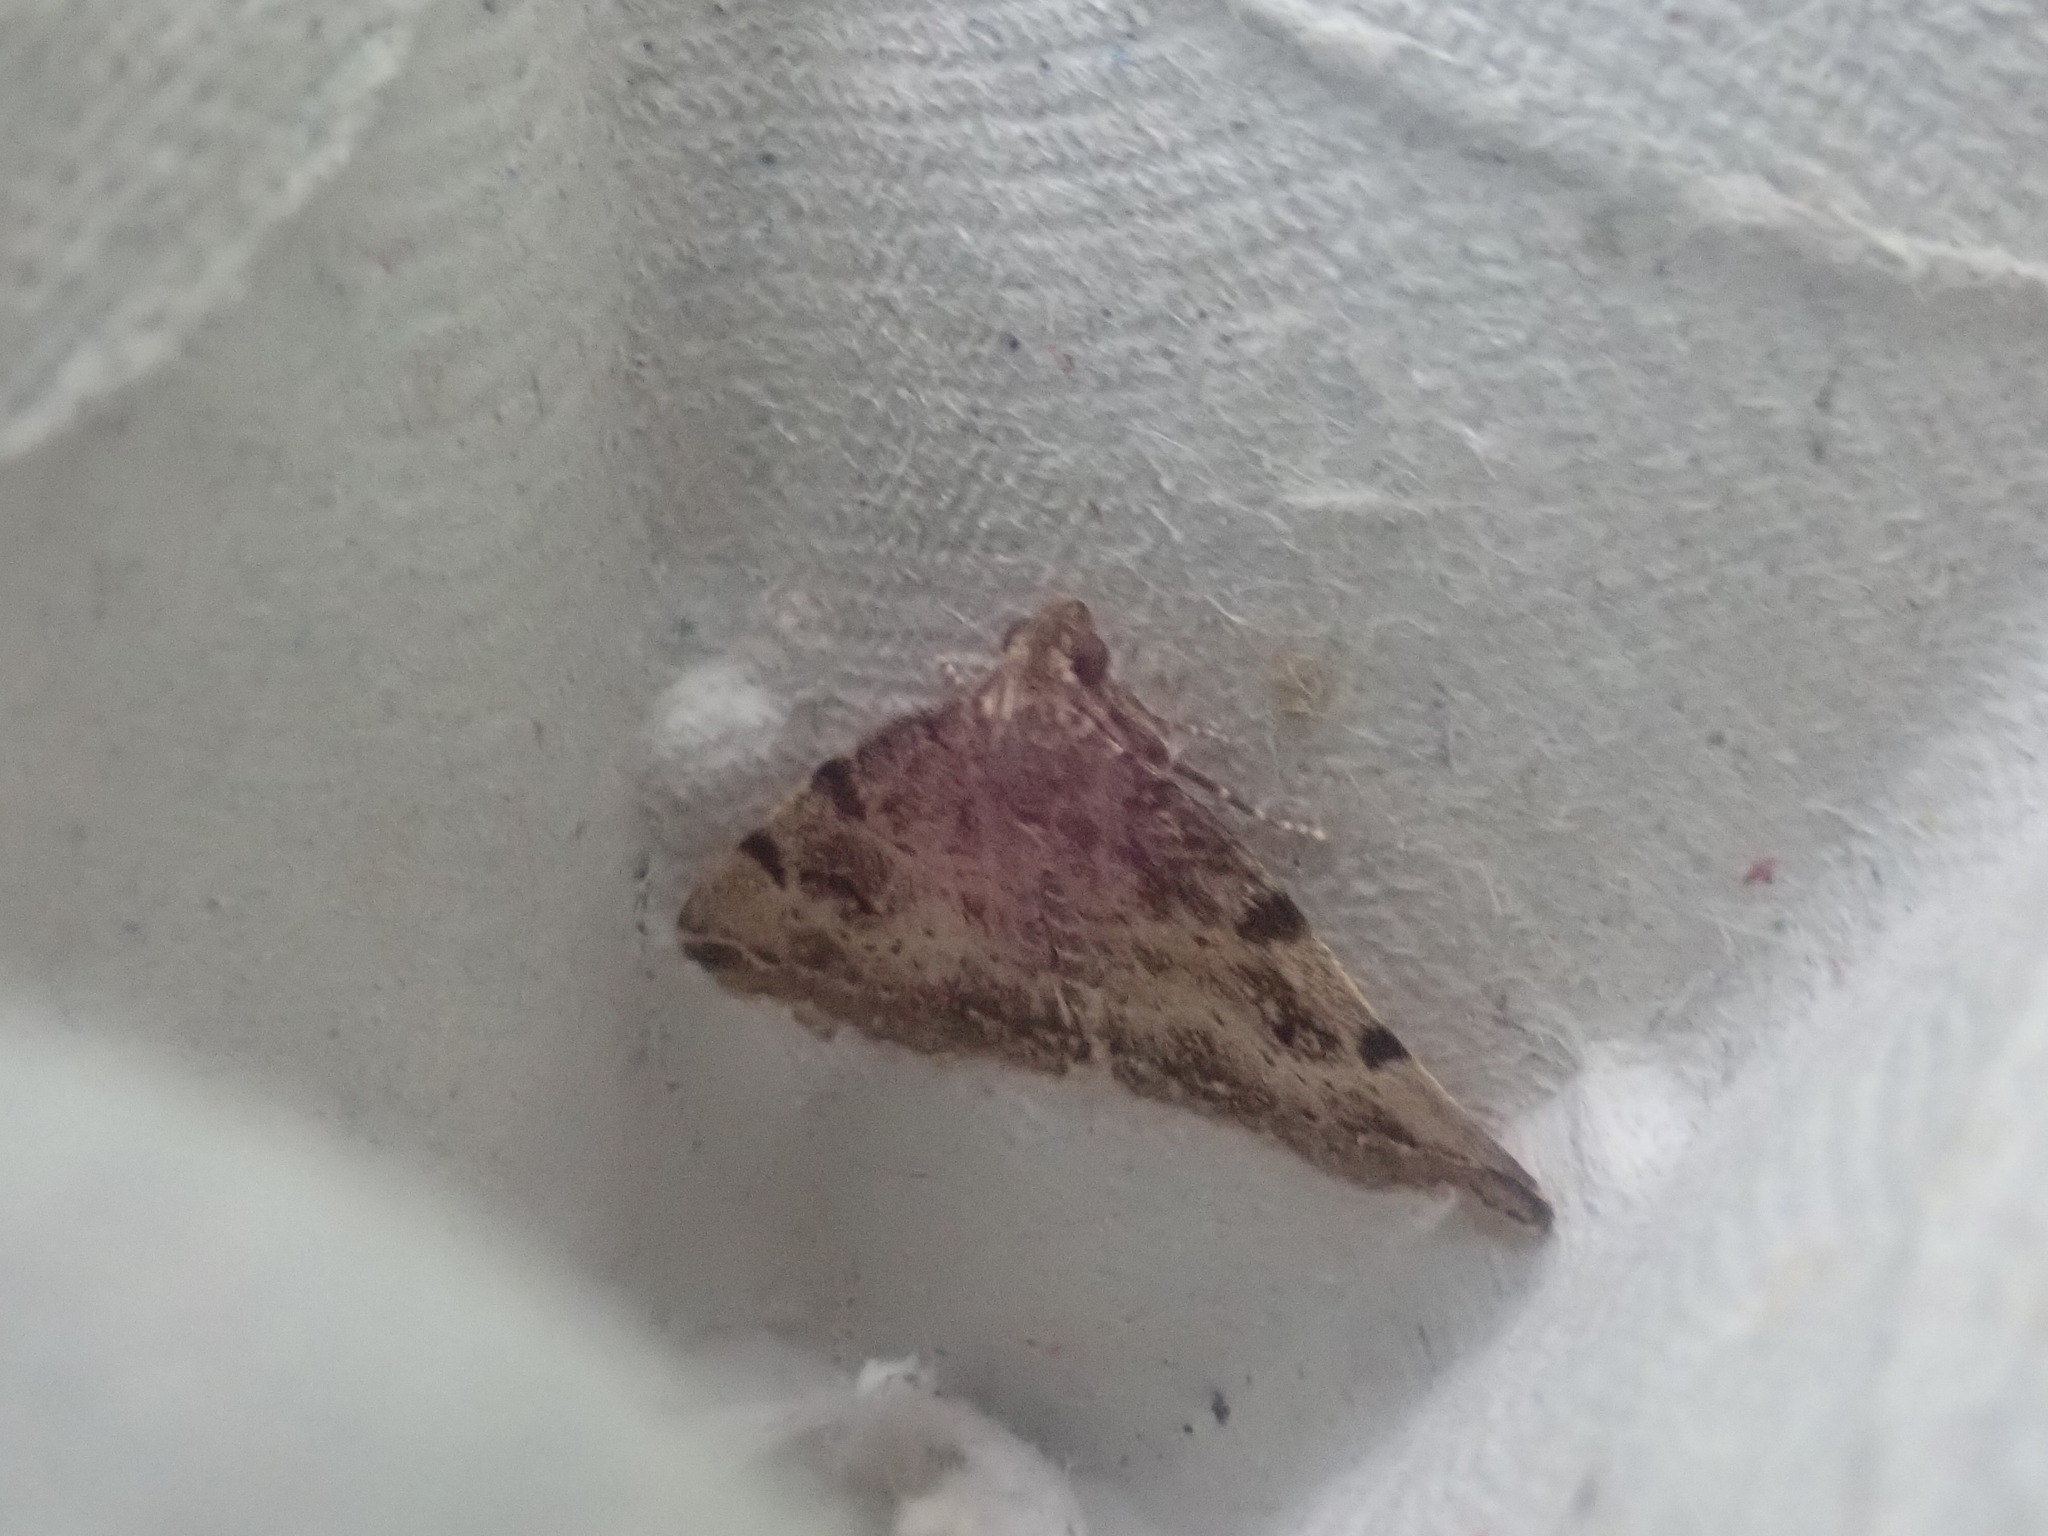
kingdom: Animalia
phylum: Arthropoda
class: Insecta
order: Lepidoptera
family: Erebidae
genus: Zanclognatha
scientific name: Zanclognatha lituralis
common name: Lettered fan-foot
